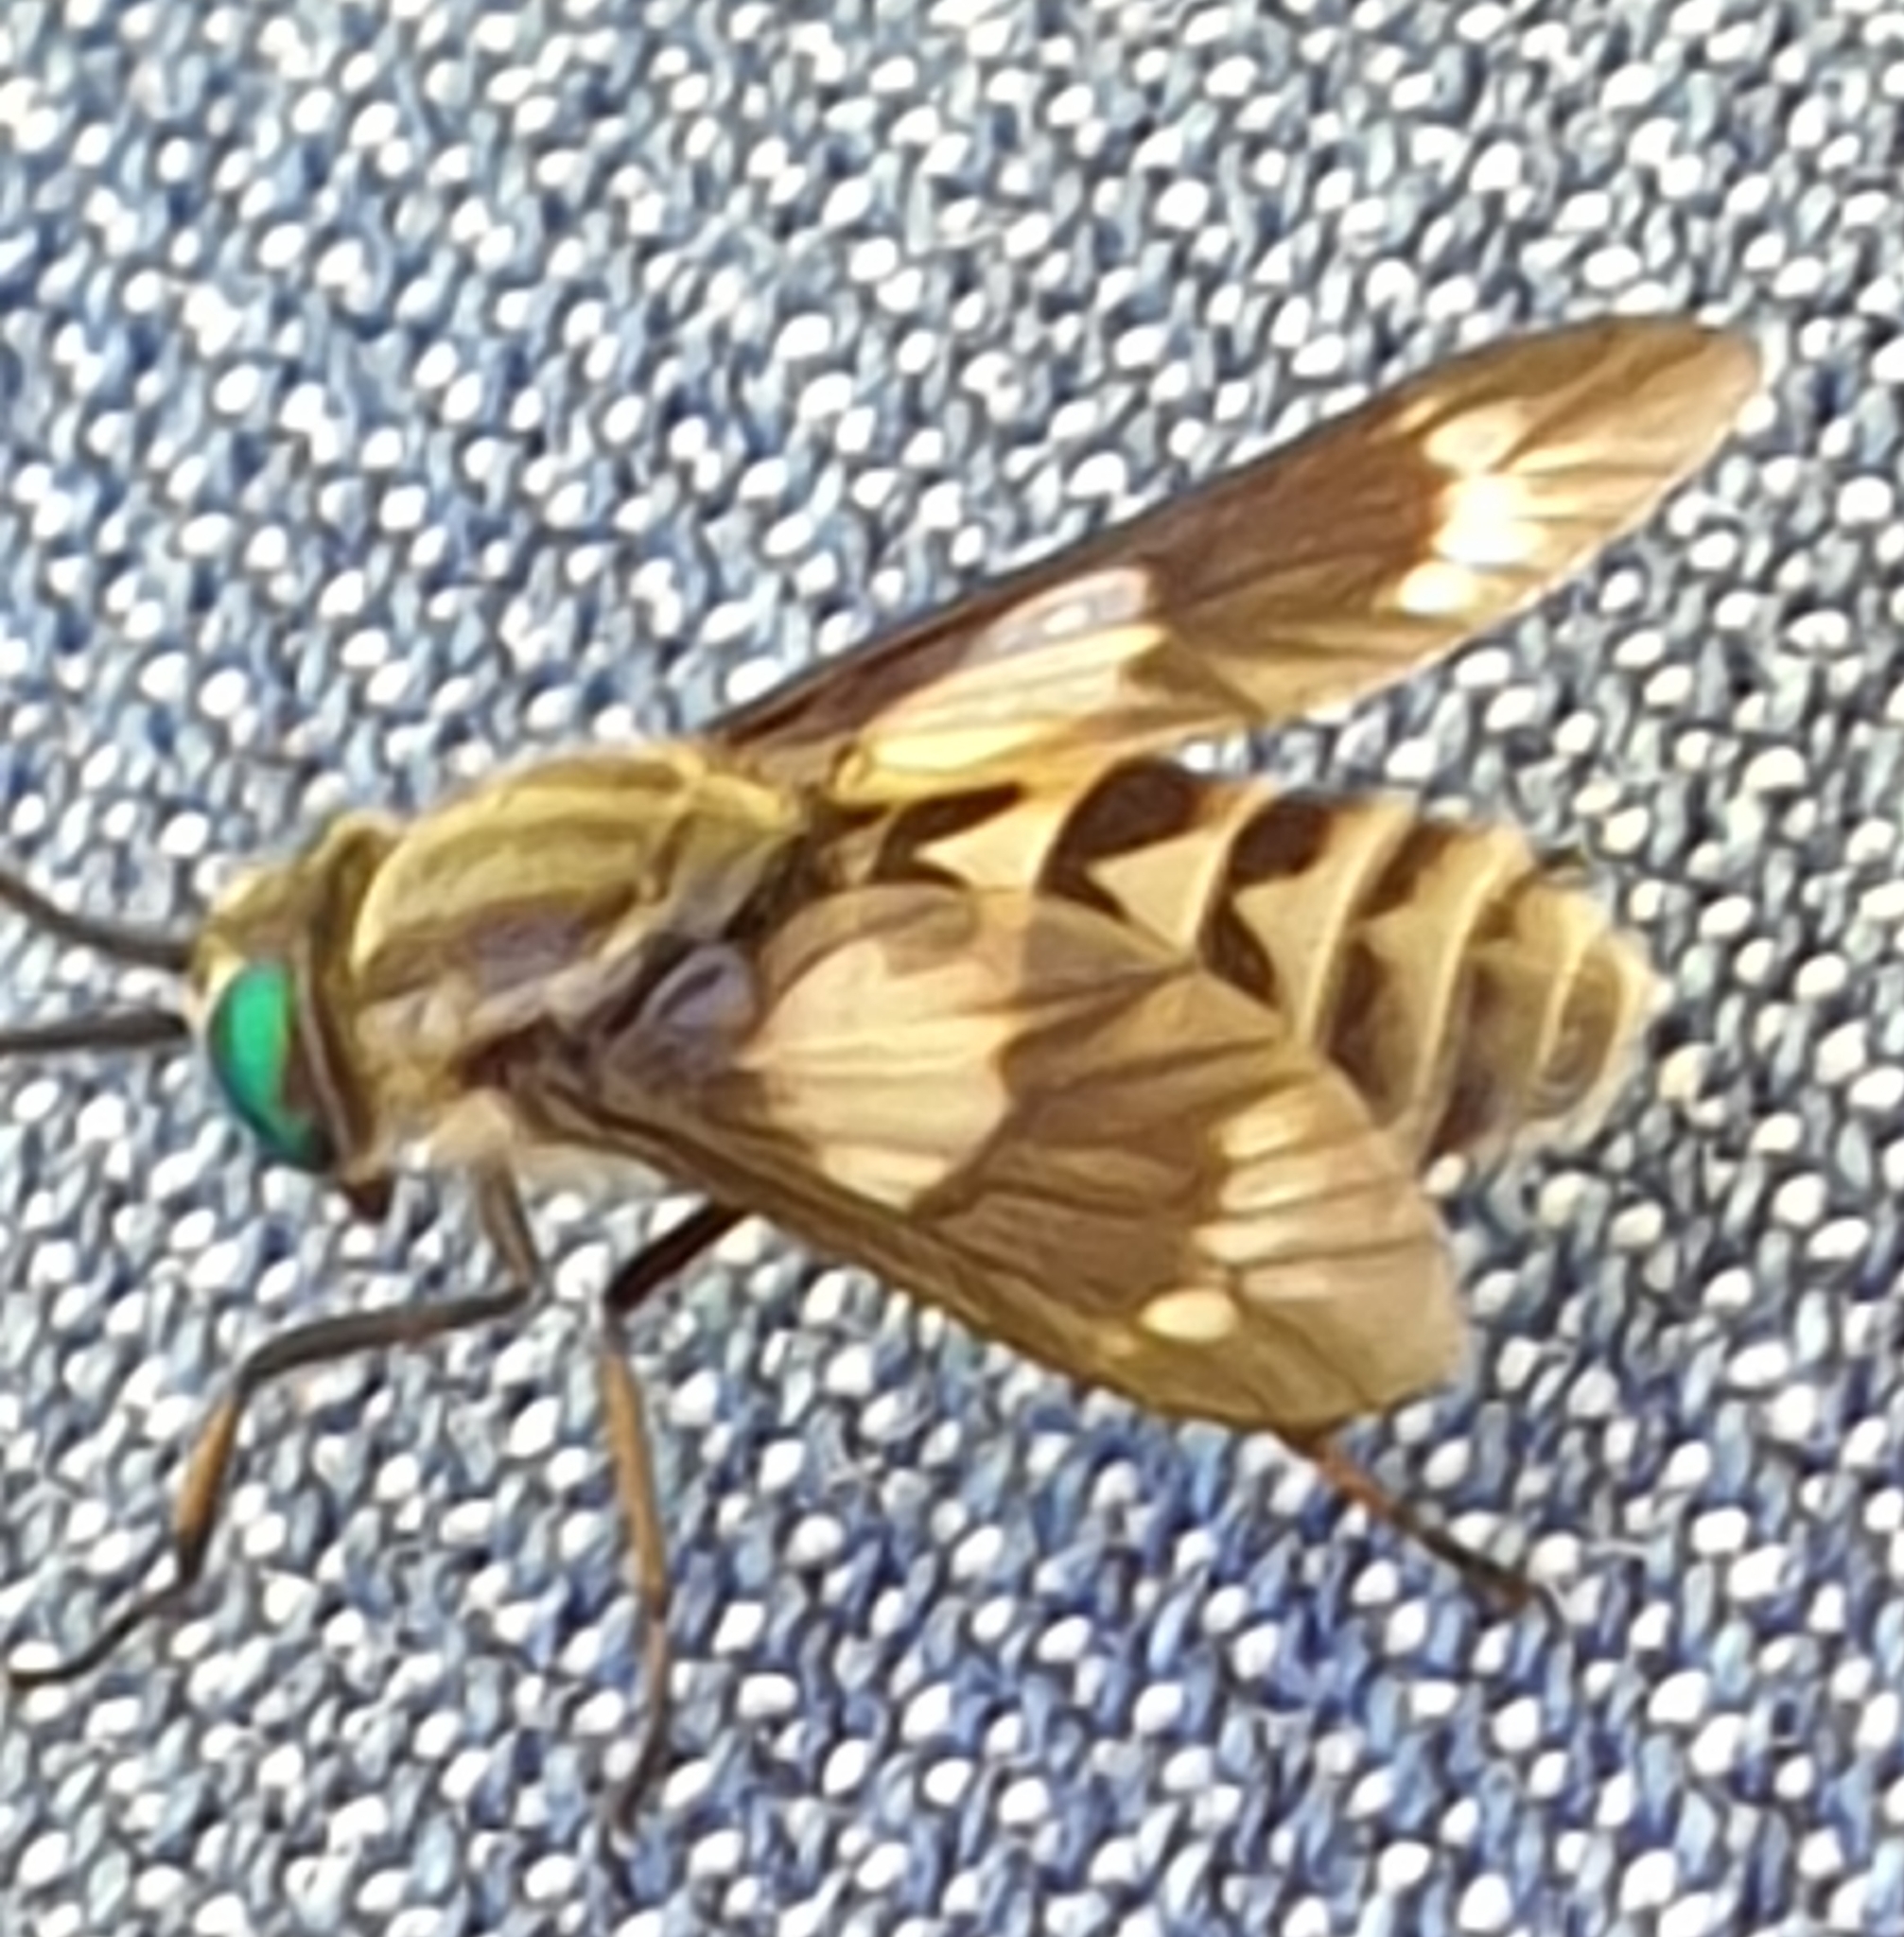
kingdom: Animalia
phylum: Arthropoda
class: Insecta
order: Diptera
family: Tabanidae
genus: Chrysops
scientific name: Chrysops relictus
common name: Twin-lobed deerfly
